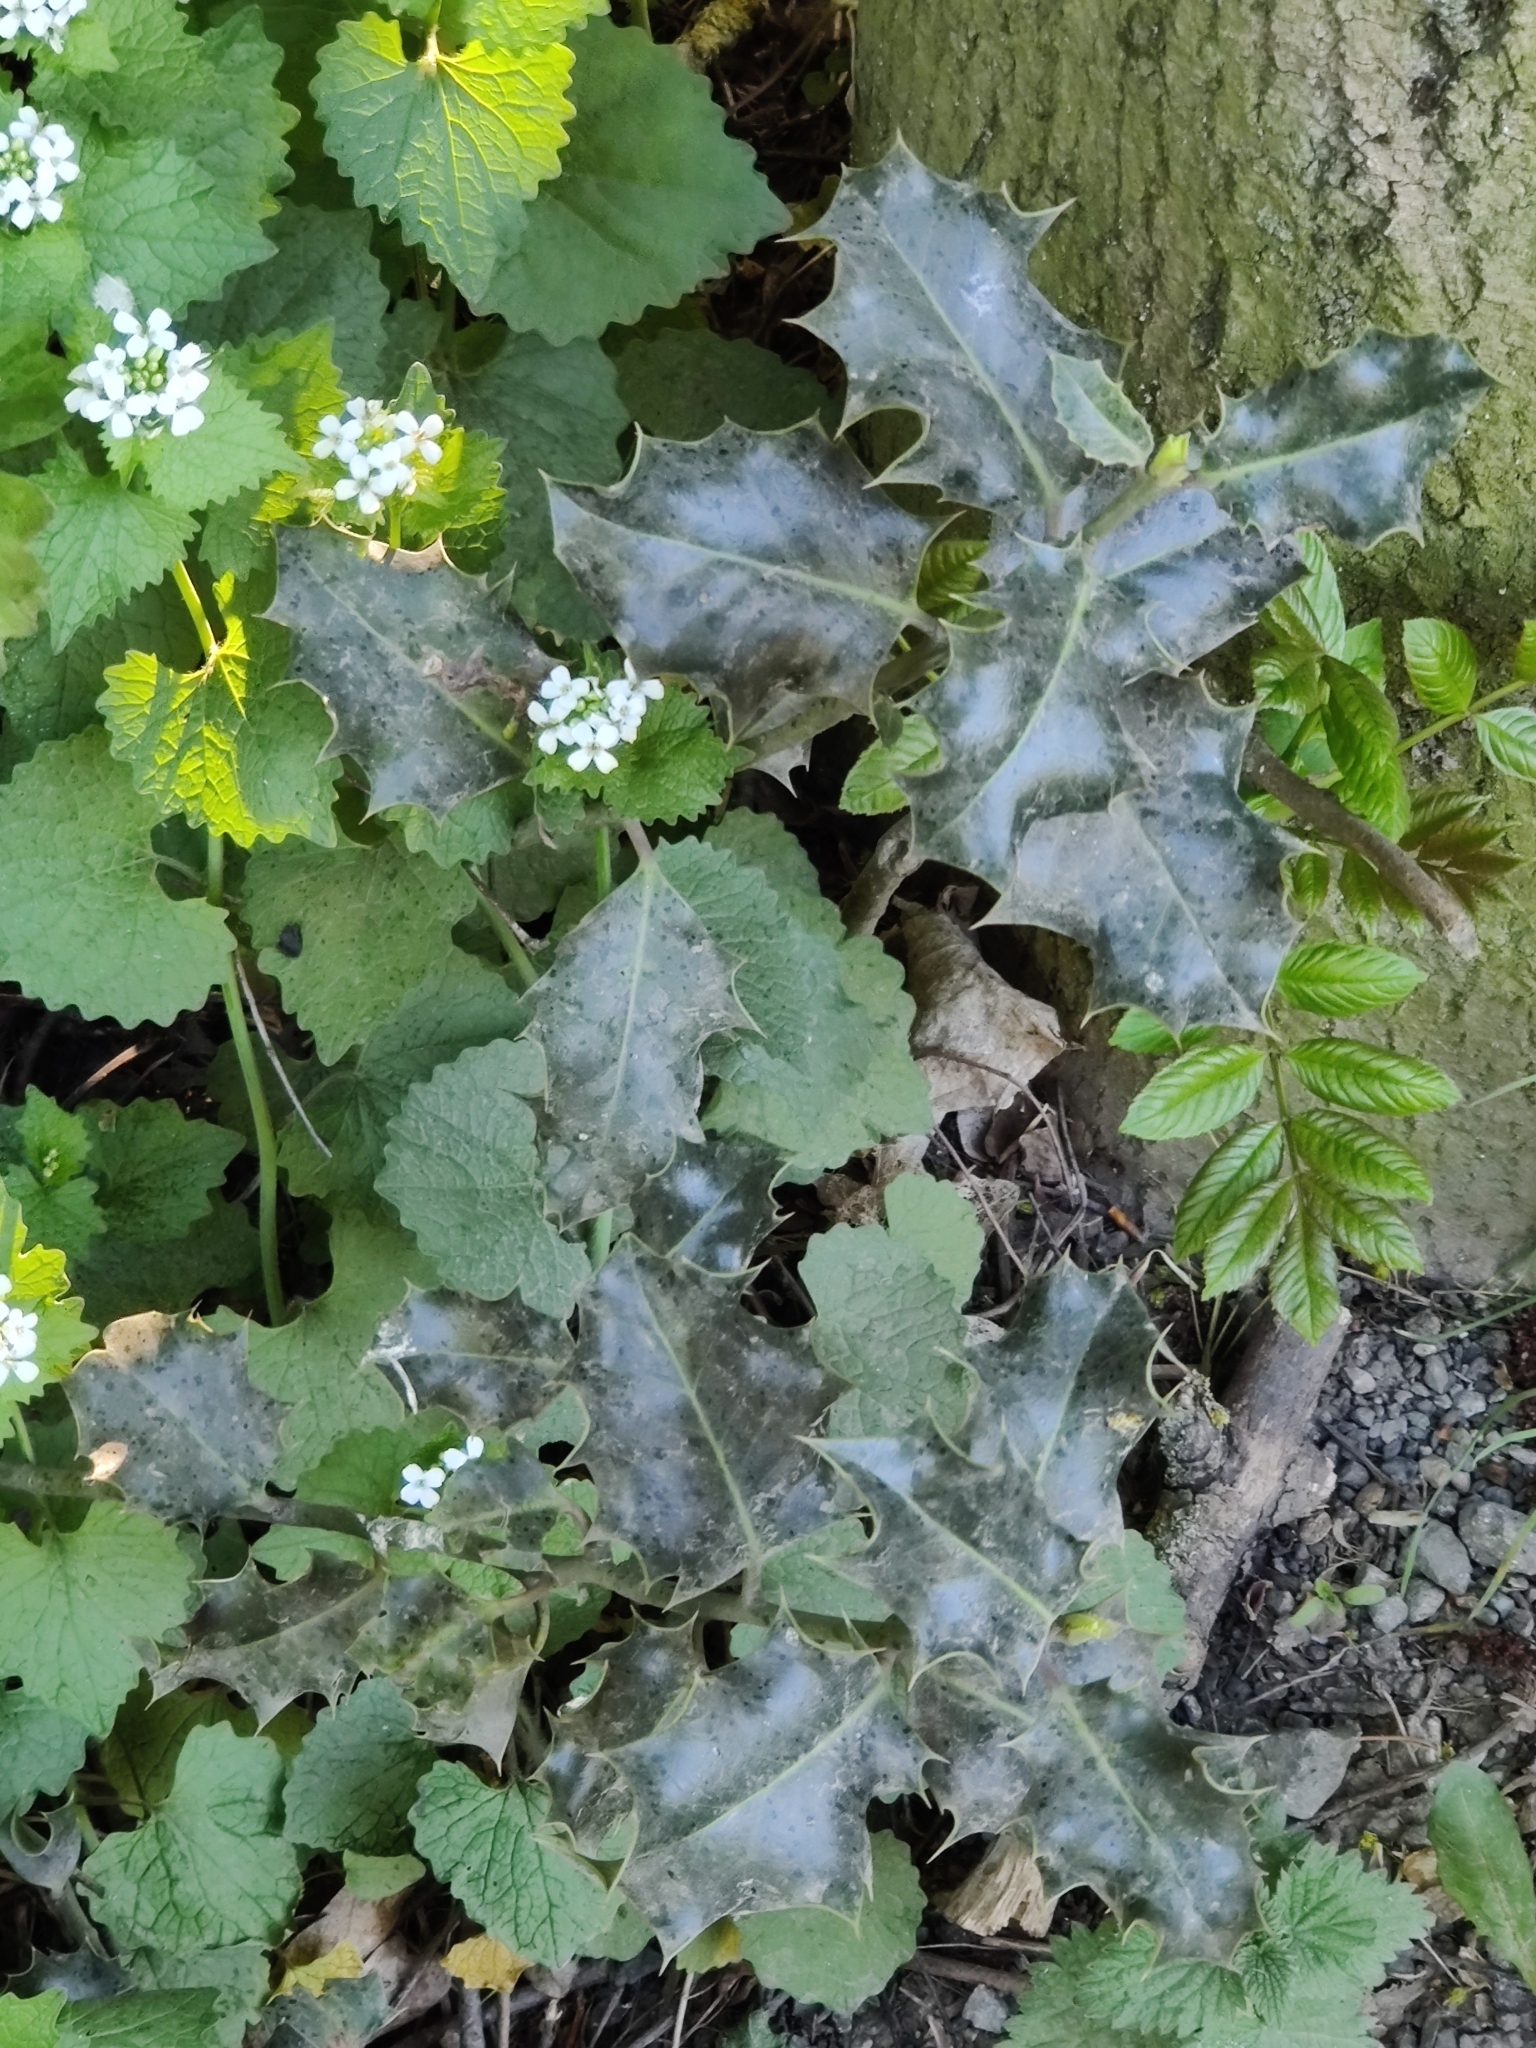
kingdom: Plantae
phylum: Tracheophyta
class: Magnoliopsida
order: Aquifoliales
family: Aquifoliaceae
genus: Ilex
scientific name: Ilex aquifolium
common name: English holly
